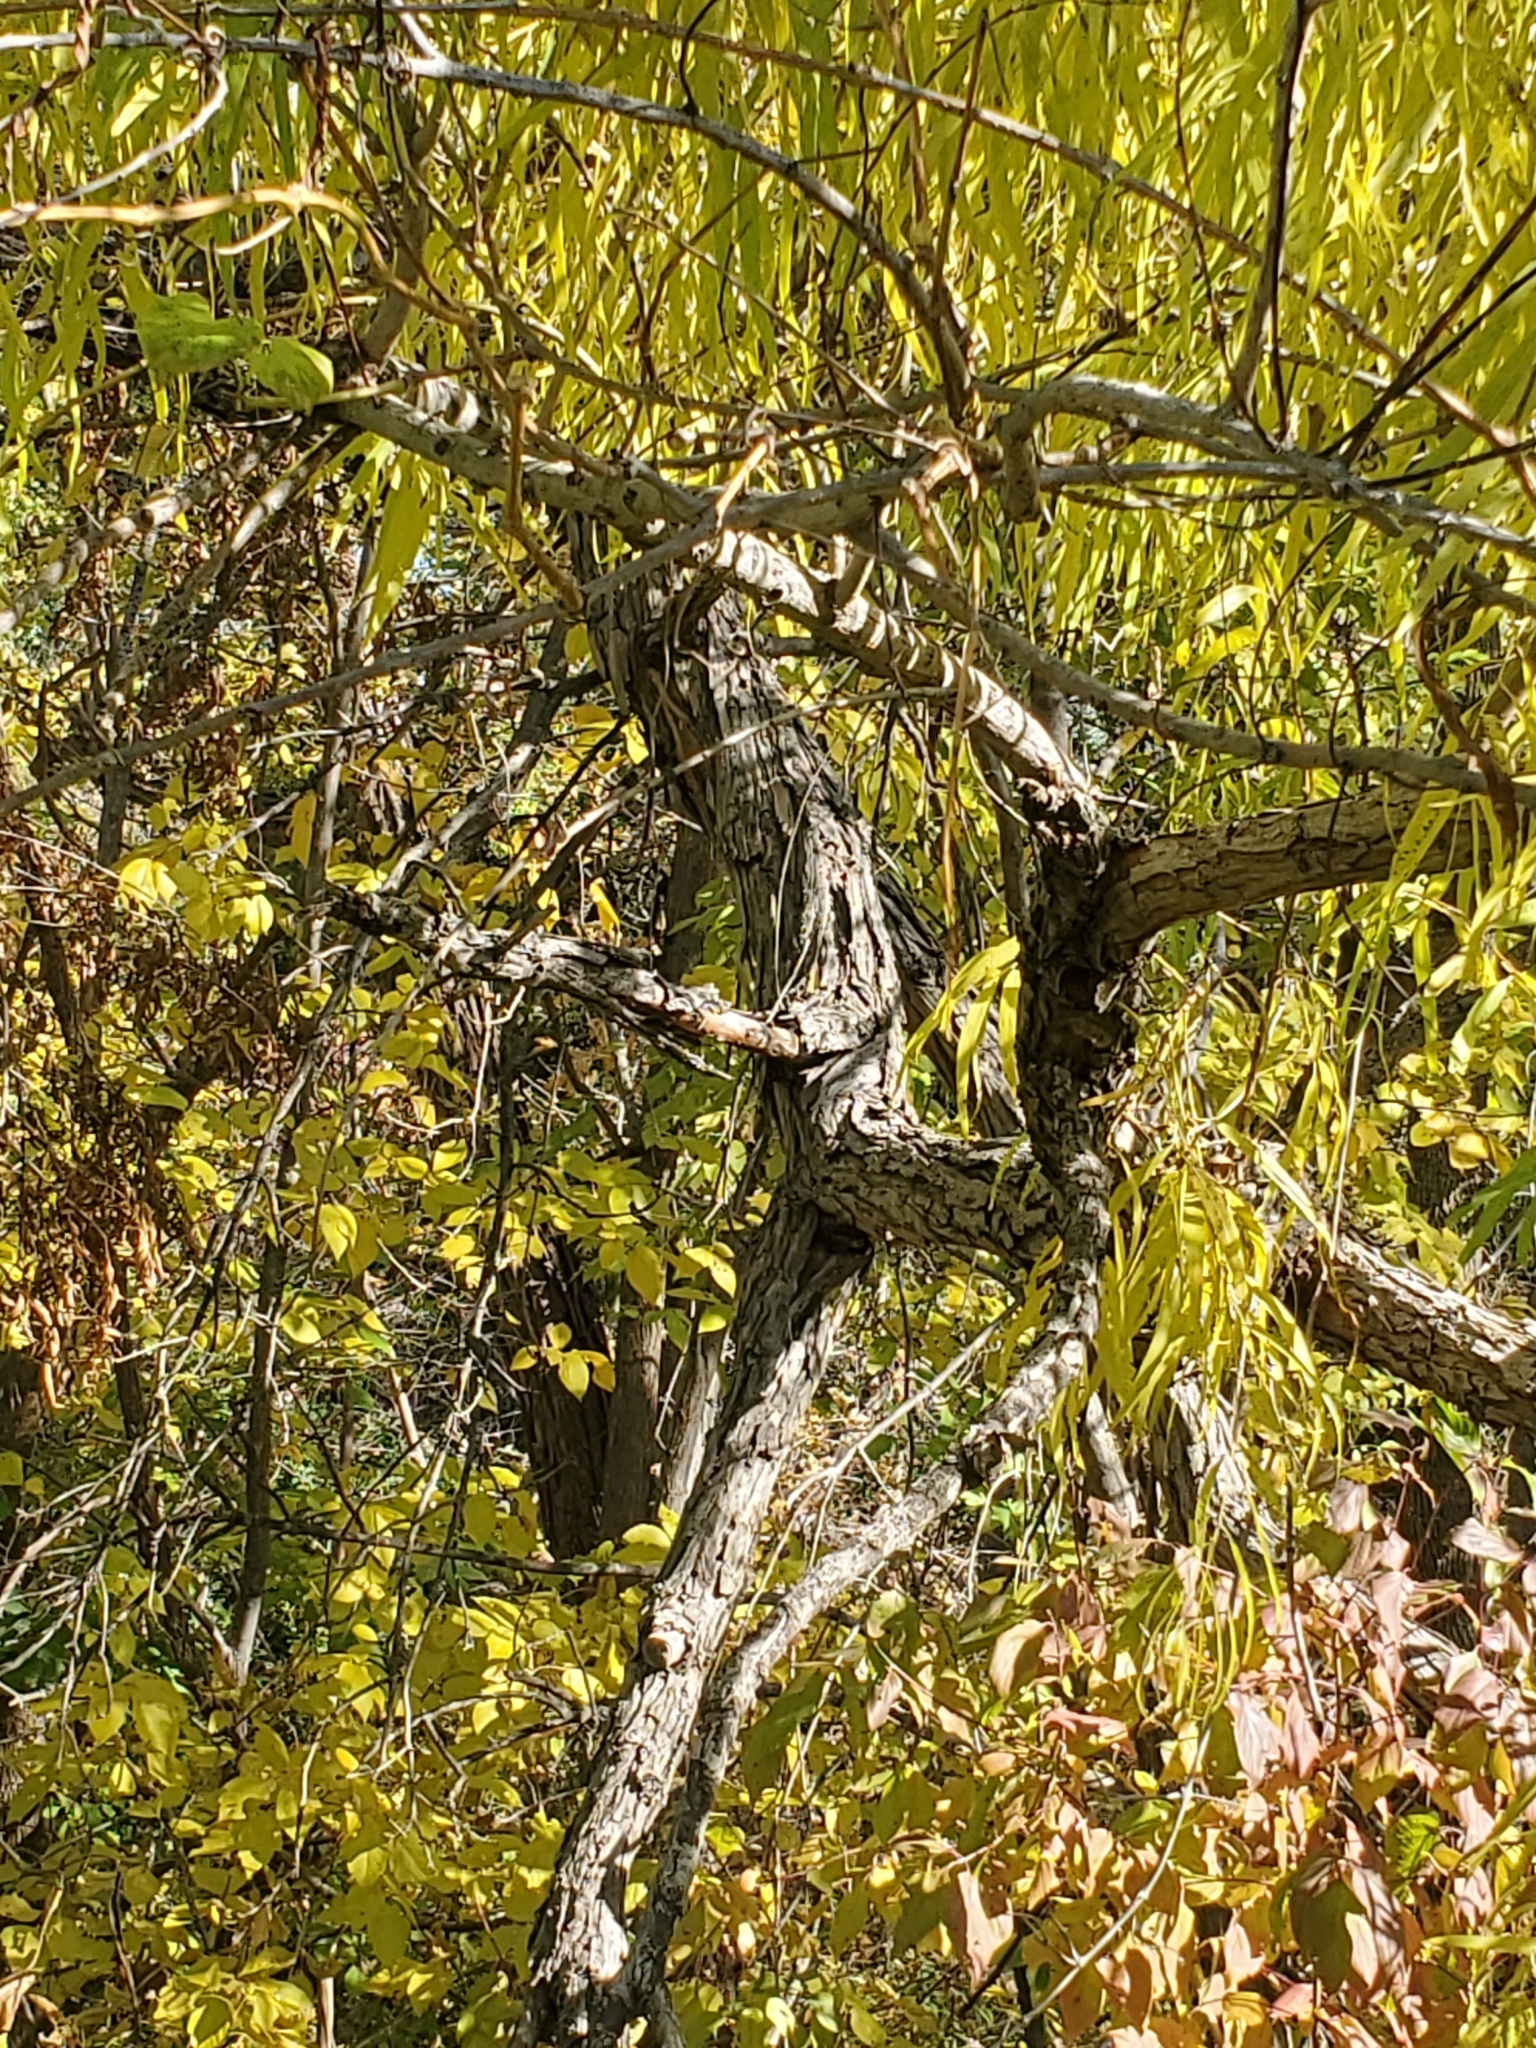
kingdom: Plantae
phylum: Tracheophyta
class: Magnoliopsida
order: Malpighiales
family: Salicaceae
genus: Salix
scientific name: Salix nigra
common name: Black willow
